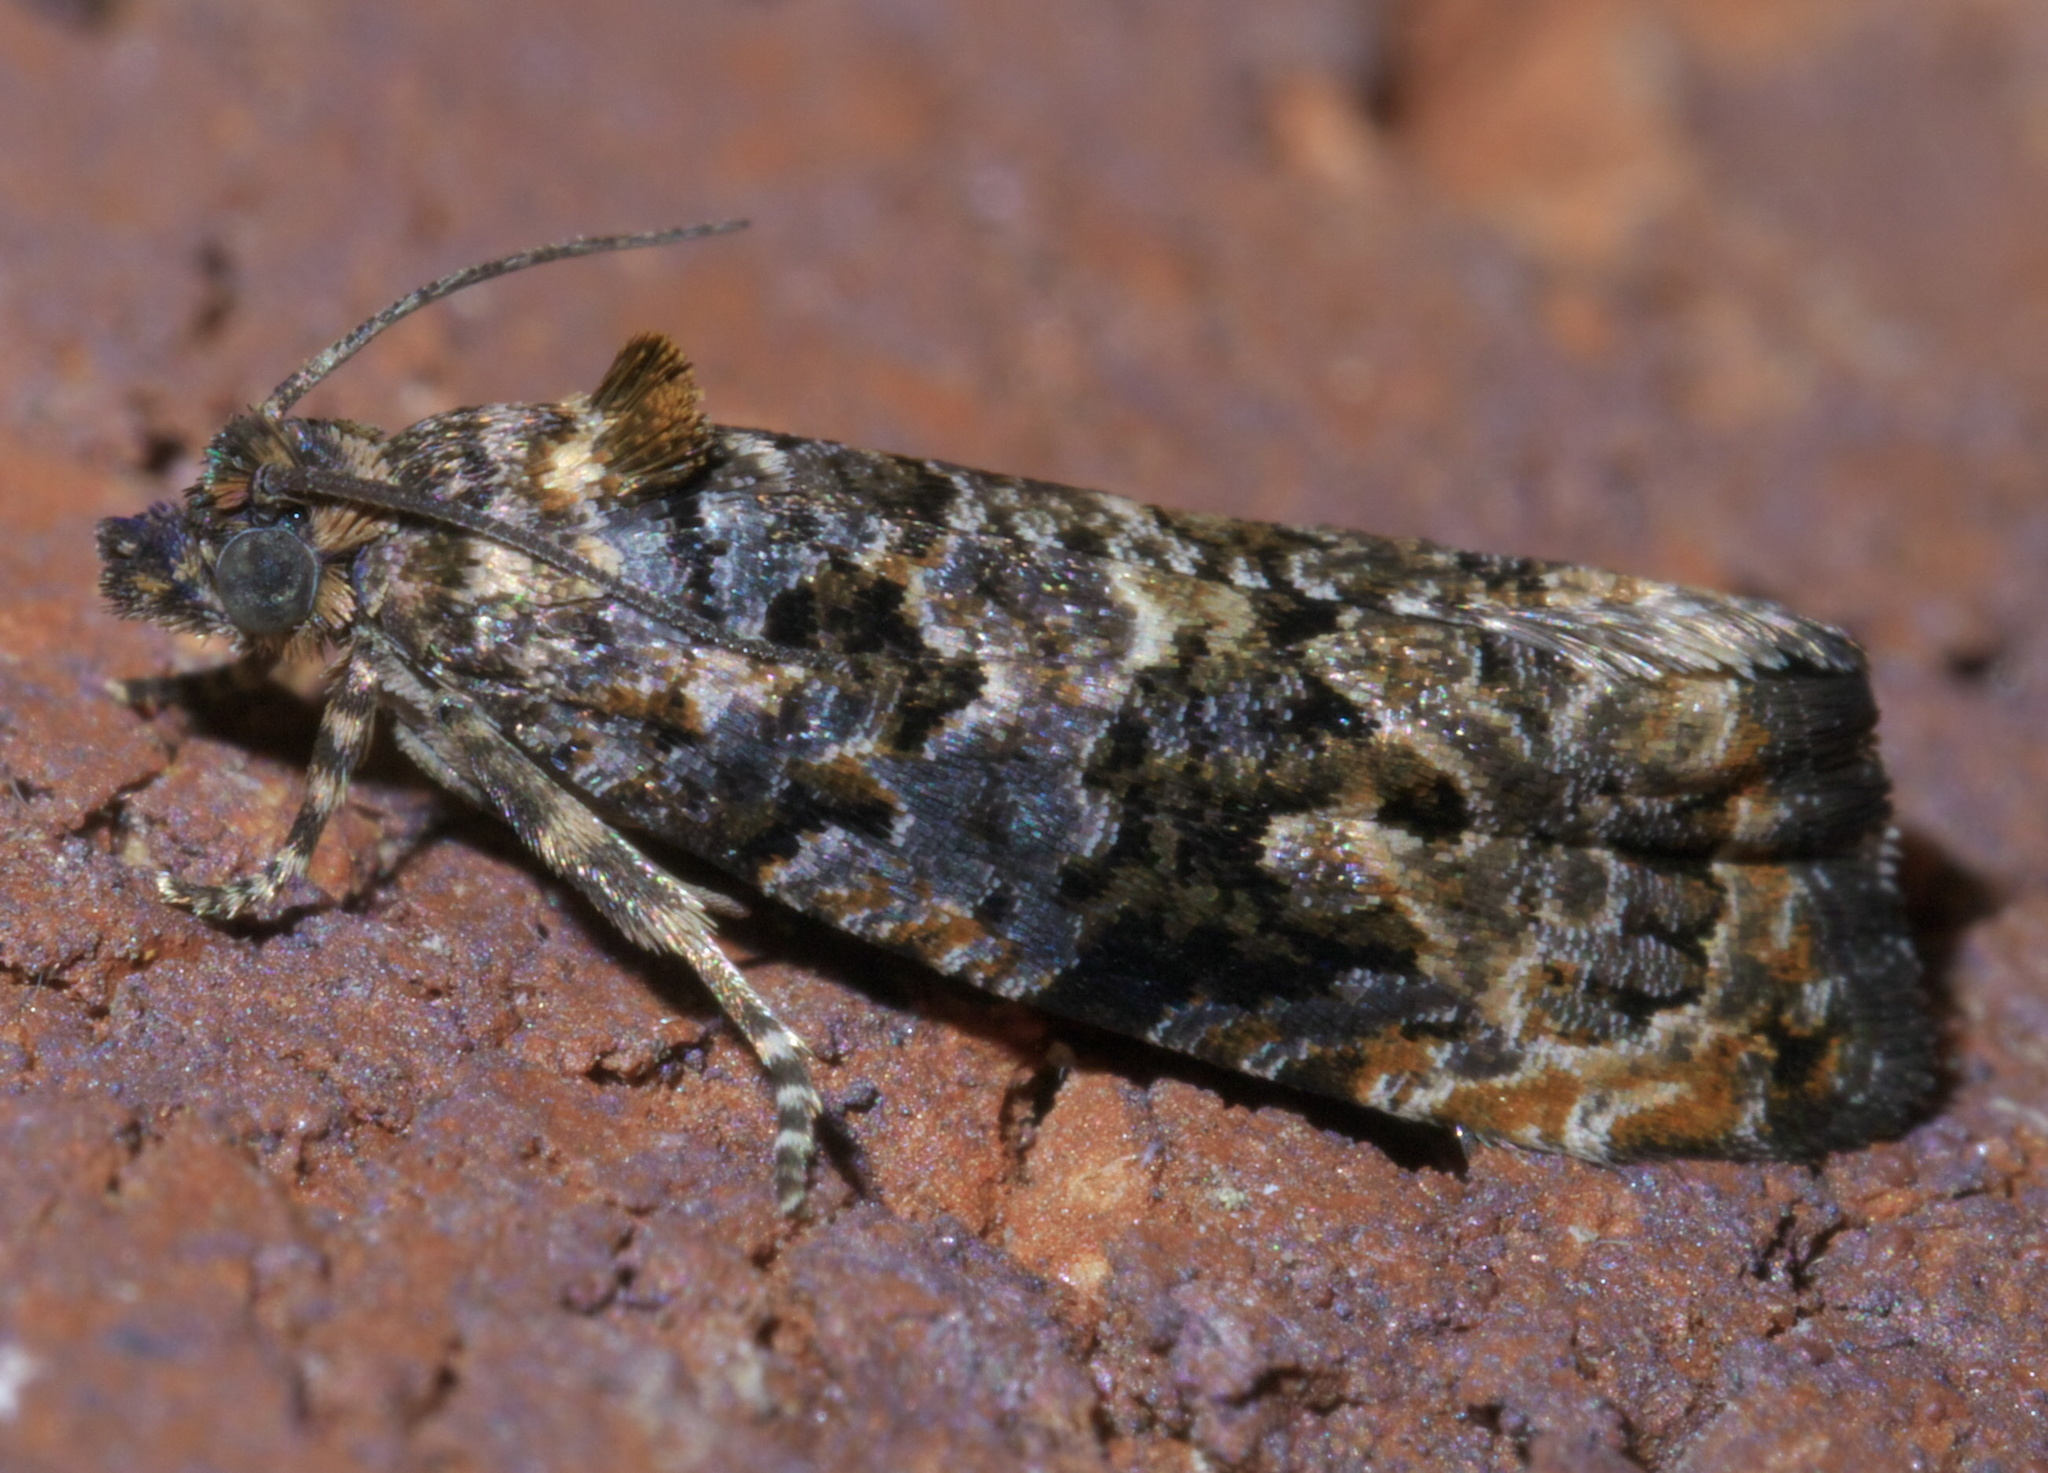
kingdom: Animalia
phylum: Arthropoda
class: Insecta
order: Lepidoptera
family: Tortricidae
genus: Endothenia
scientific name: Endothenia hebesana
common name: Verbena bud moth
